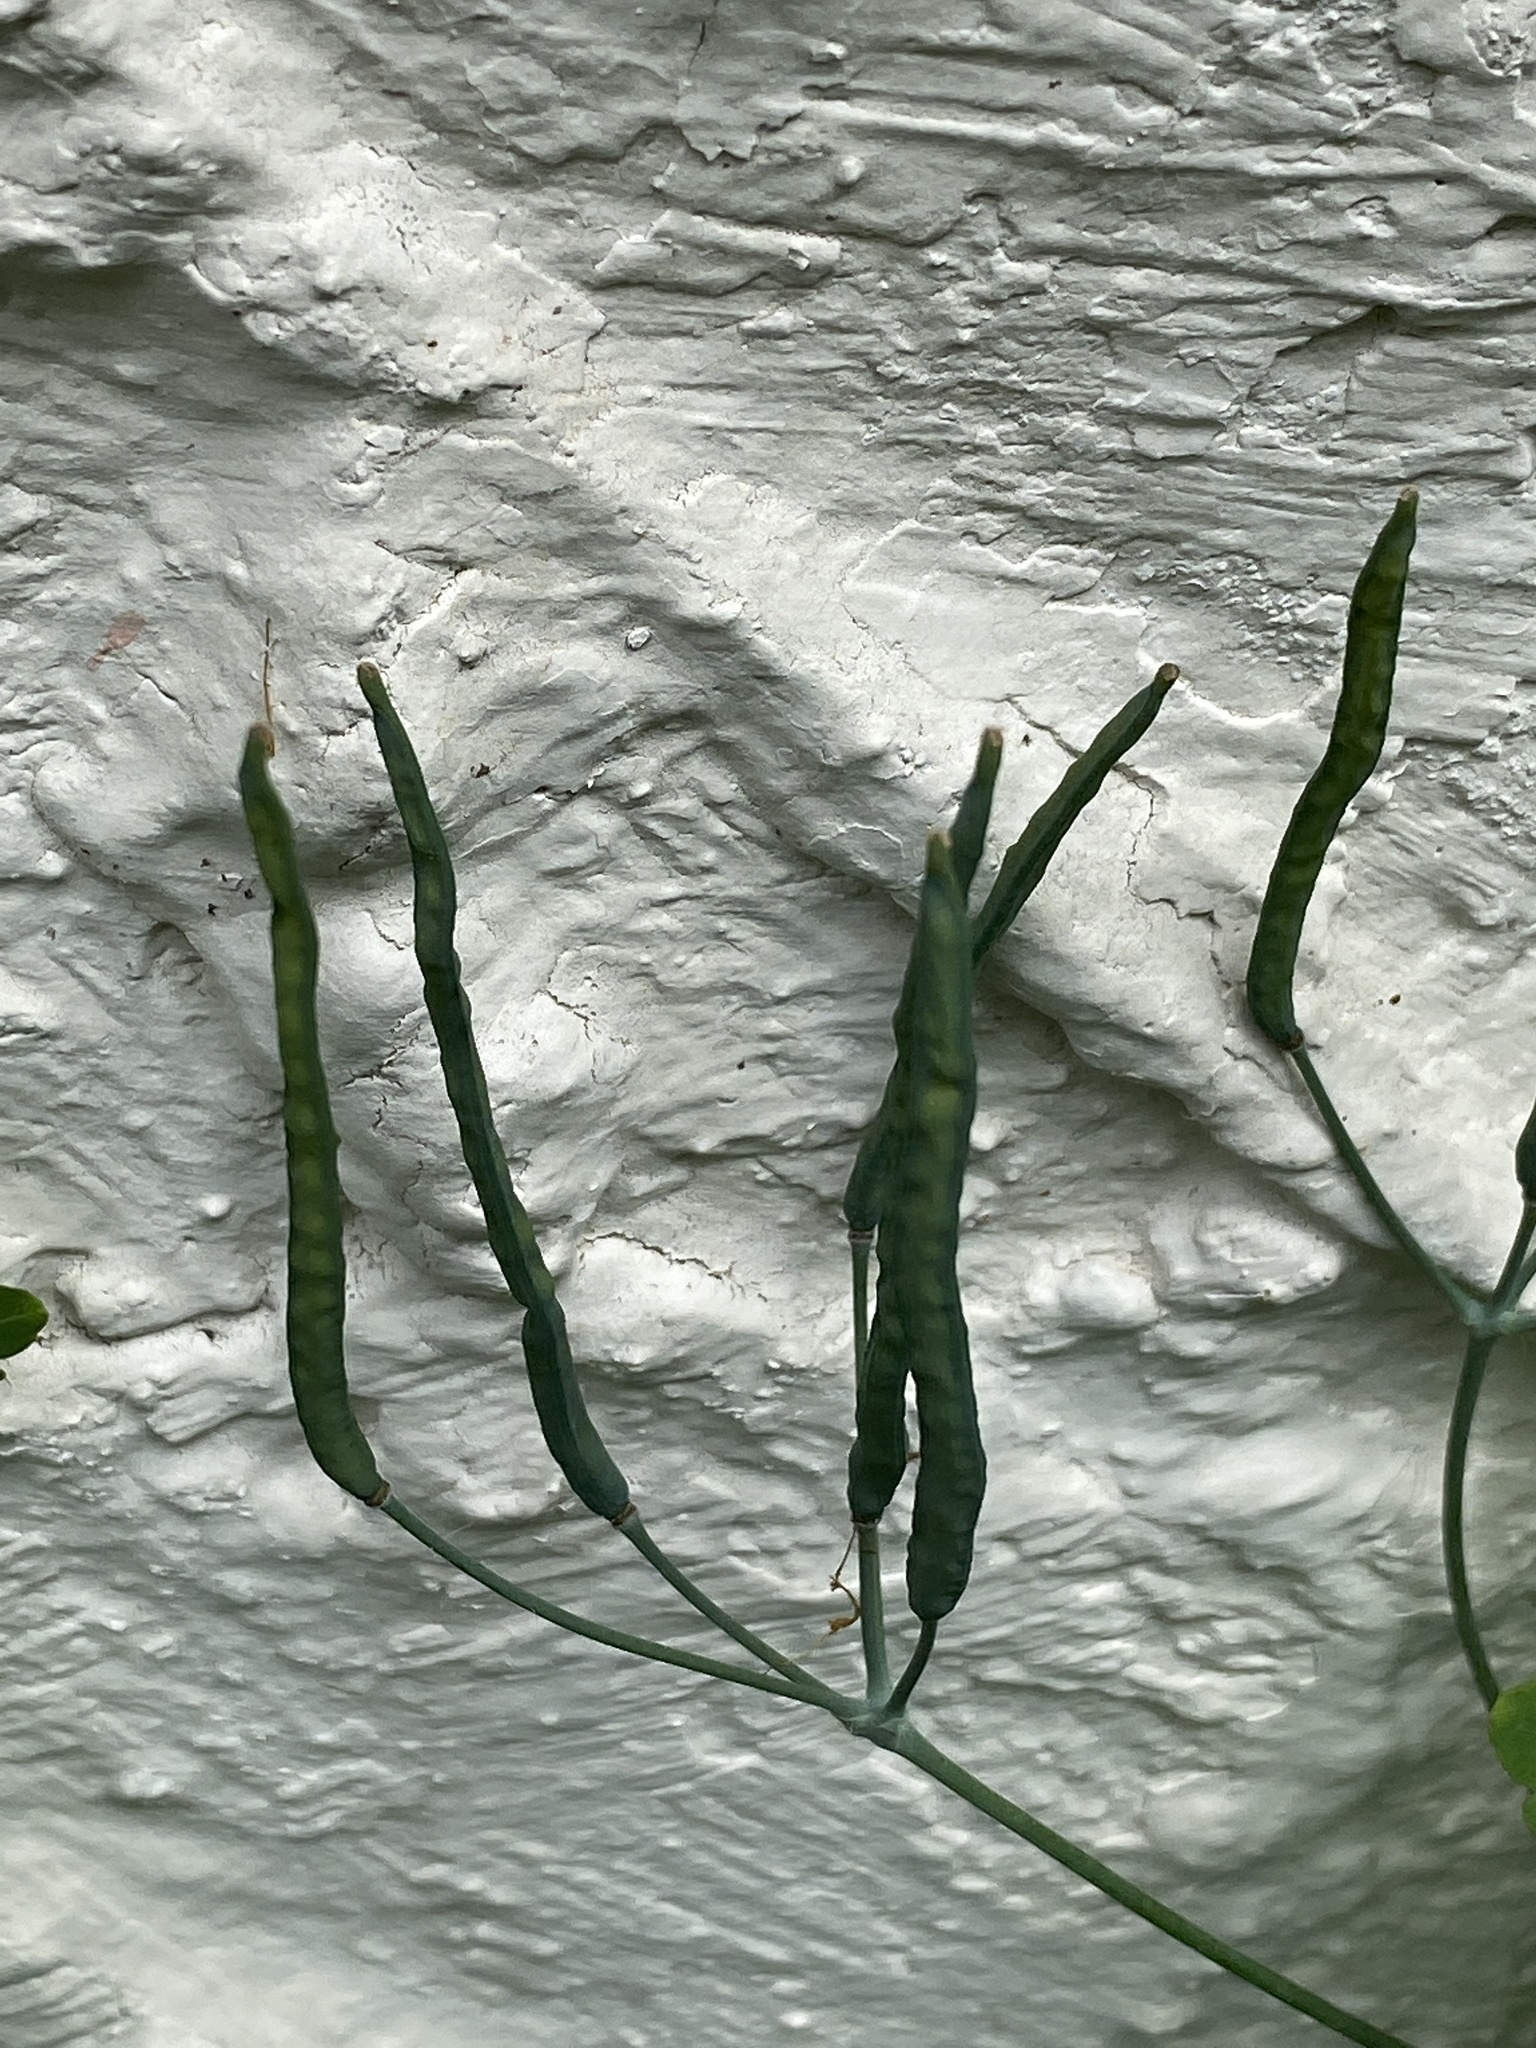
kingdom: Plantae
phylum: Tracheophyta
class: Magnoliopsida
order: Ranunculales
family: Papaveraceae
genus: Chelidonium
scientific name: Chelidonium majus
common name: Greater celandine
